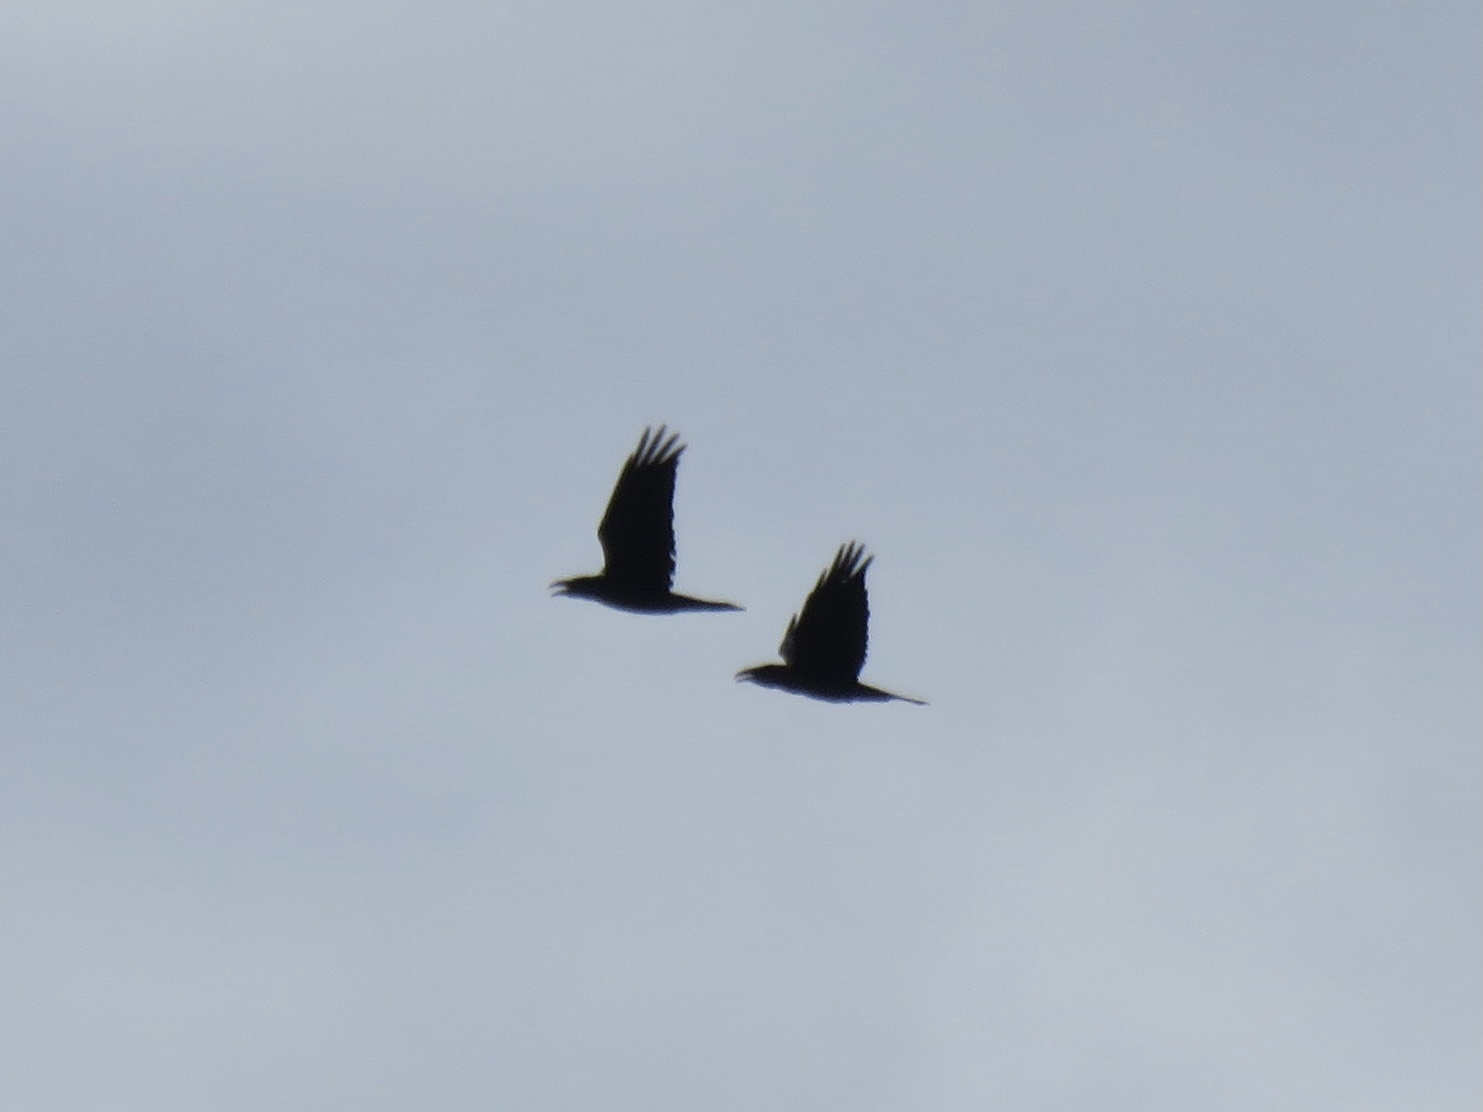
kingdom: Animalia
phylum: Chordata
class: Aves
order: Passeriformes
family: Corvidae
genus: Corvus
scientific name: Corvus corax
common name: Common raven
